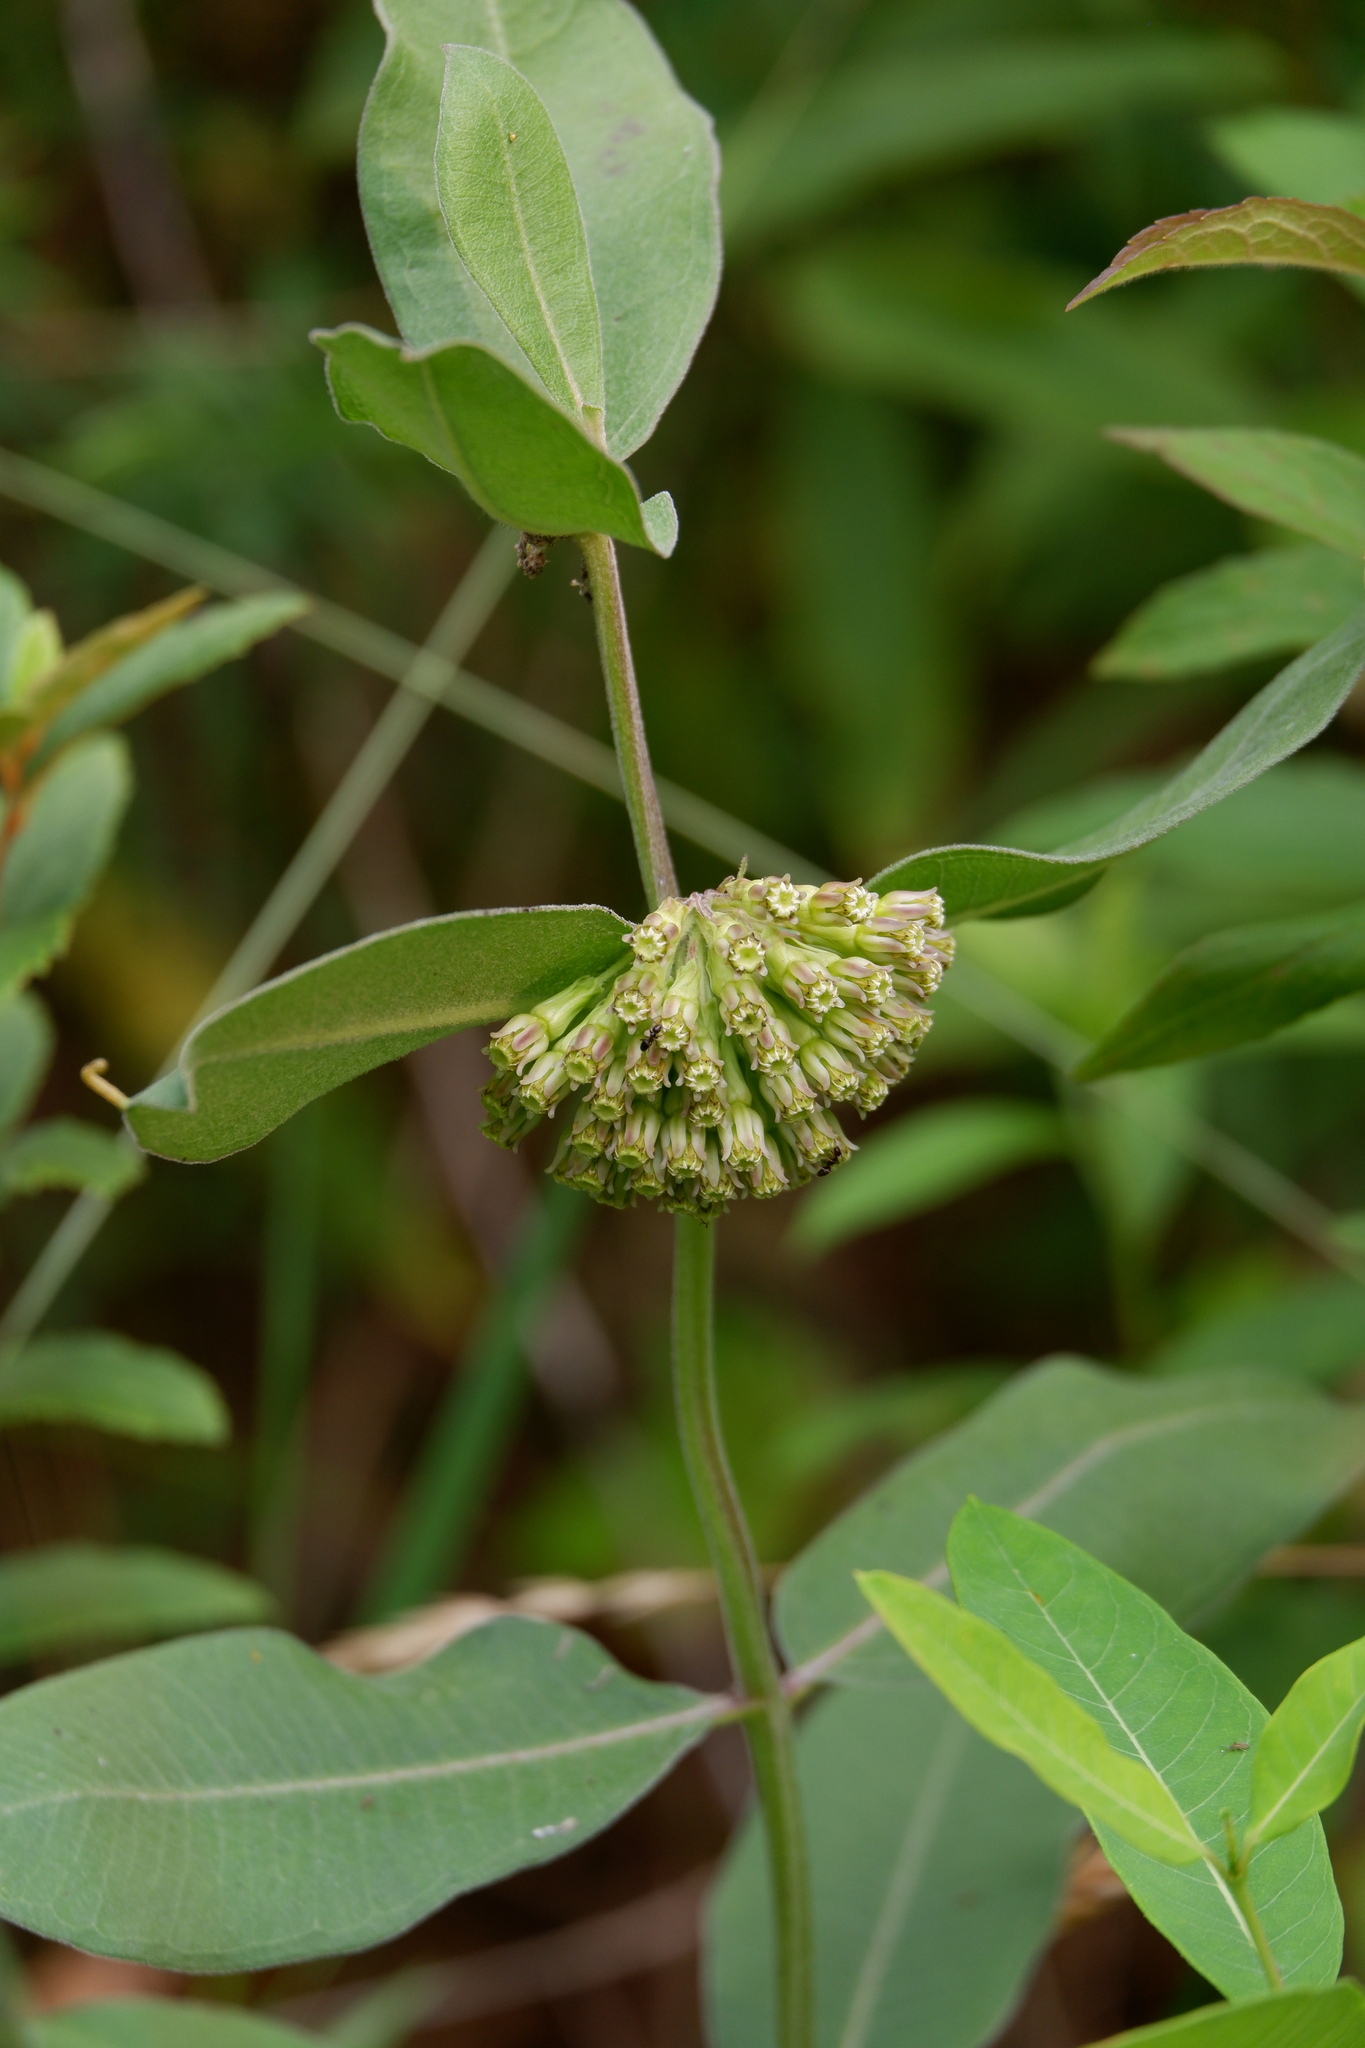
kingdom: Plantae
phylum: Tracheophyta
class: Magnoliopsida
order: Gentianales
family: Apocynaceae
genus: Asclepias
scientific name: Asclepias viridiflora
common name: Green comet milkweed
